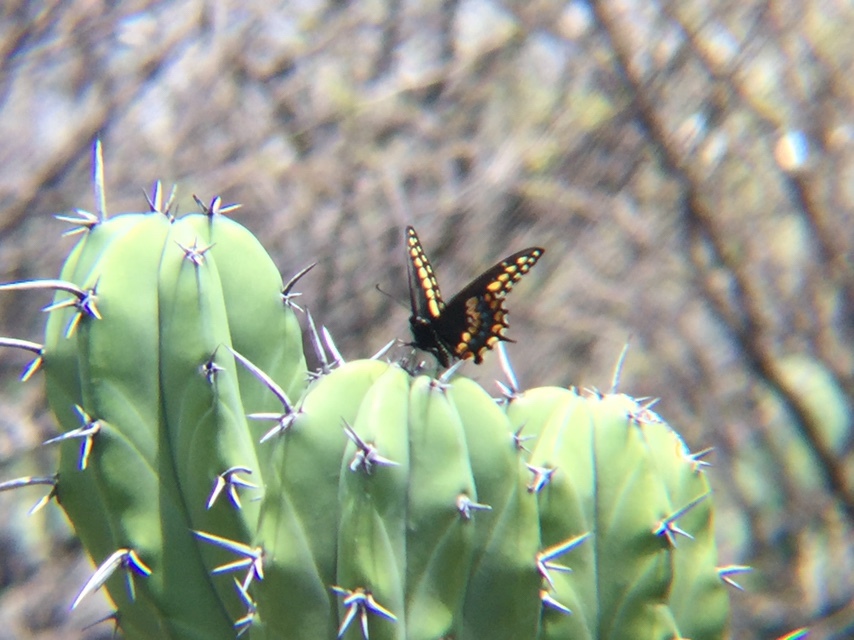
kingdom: Animalia
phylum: Arthropoda
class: Insecta
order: Lepidoptera
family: Papilionidae
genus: Papilio
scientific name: Papilio polyxenes
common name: Black swallowtail
